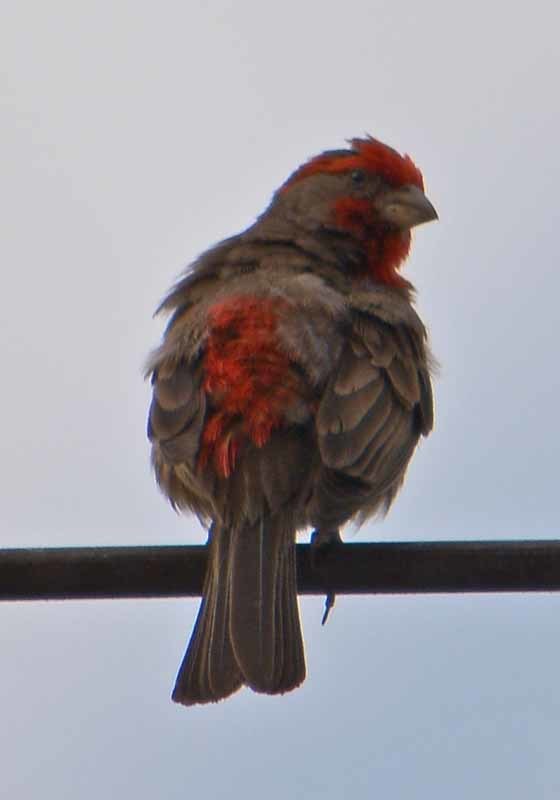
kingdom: Animalia
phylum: Chordata
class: Aves
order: Passeriformes
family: Fringillidae
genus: Haemorhous
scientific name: Haemorhous mexicanus
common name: House finch
